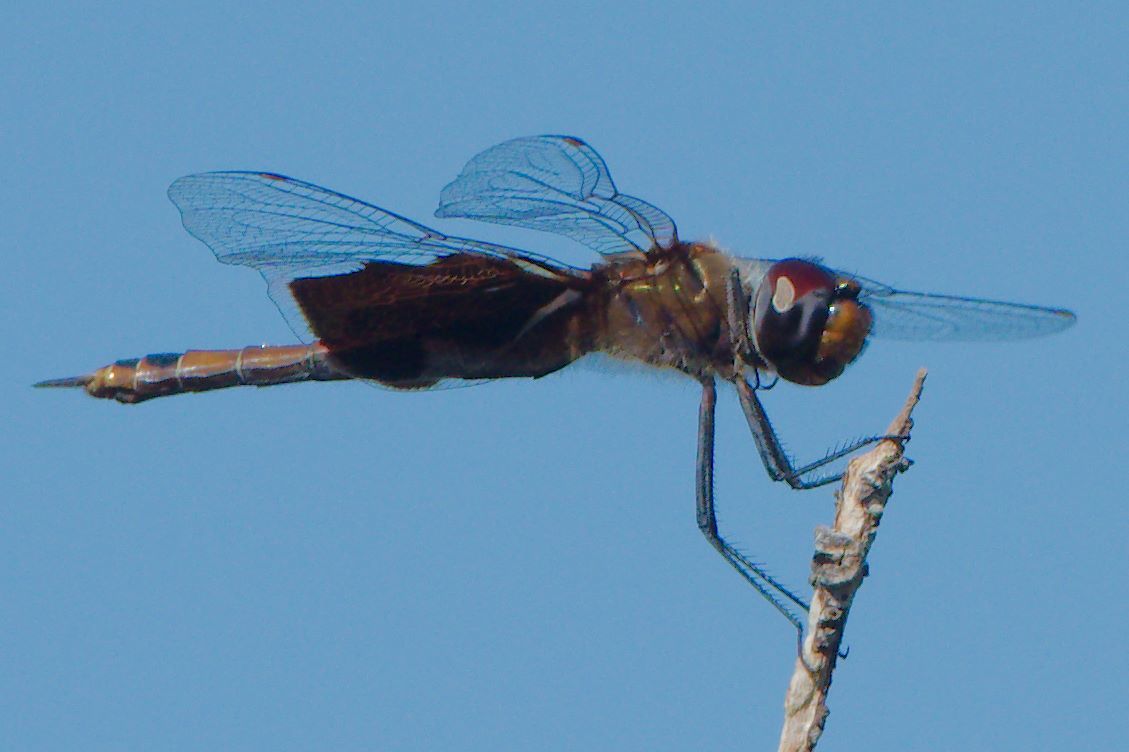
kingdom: Animalia
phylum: Arthropoda
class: Insecta
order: Odonata
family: Libellulidae
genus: Tramea
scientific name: Tramea carolina
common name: Carolina saddlebags
